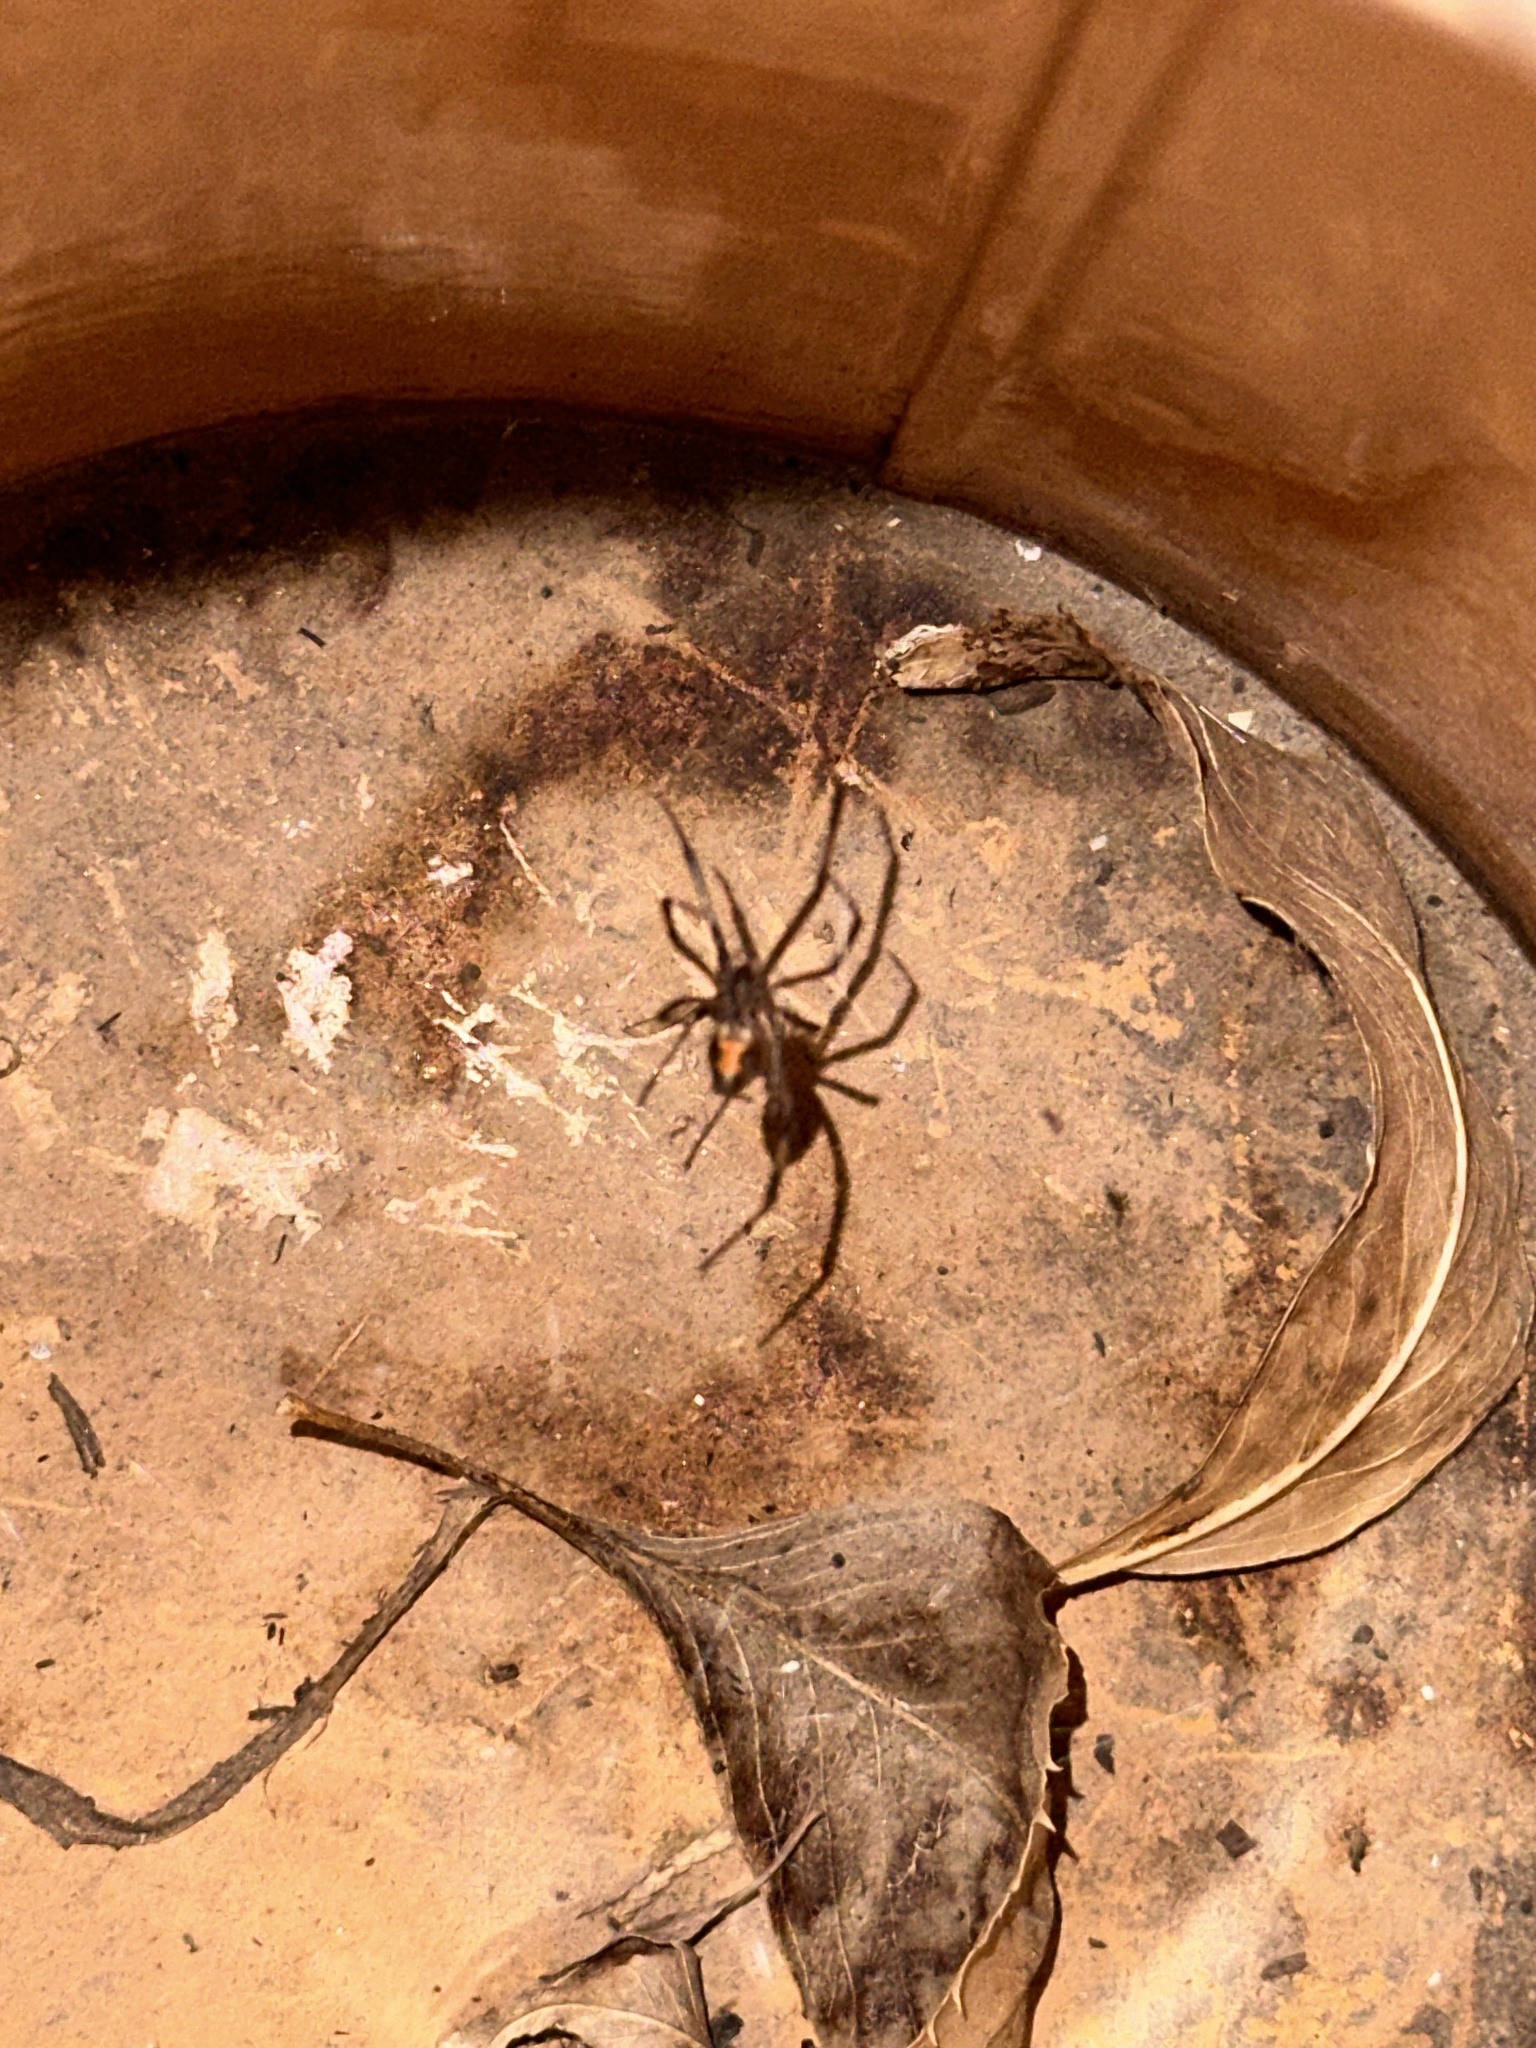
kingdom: Animalia
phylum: Arthropoda
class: Arachnida
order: Araneae
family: Theridiidae
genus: Latrodectus
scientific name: Latrodectus hesperus
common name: Western black widow
